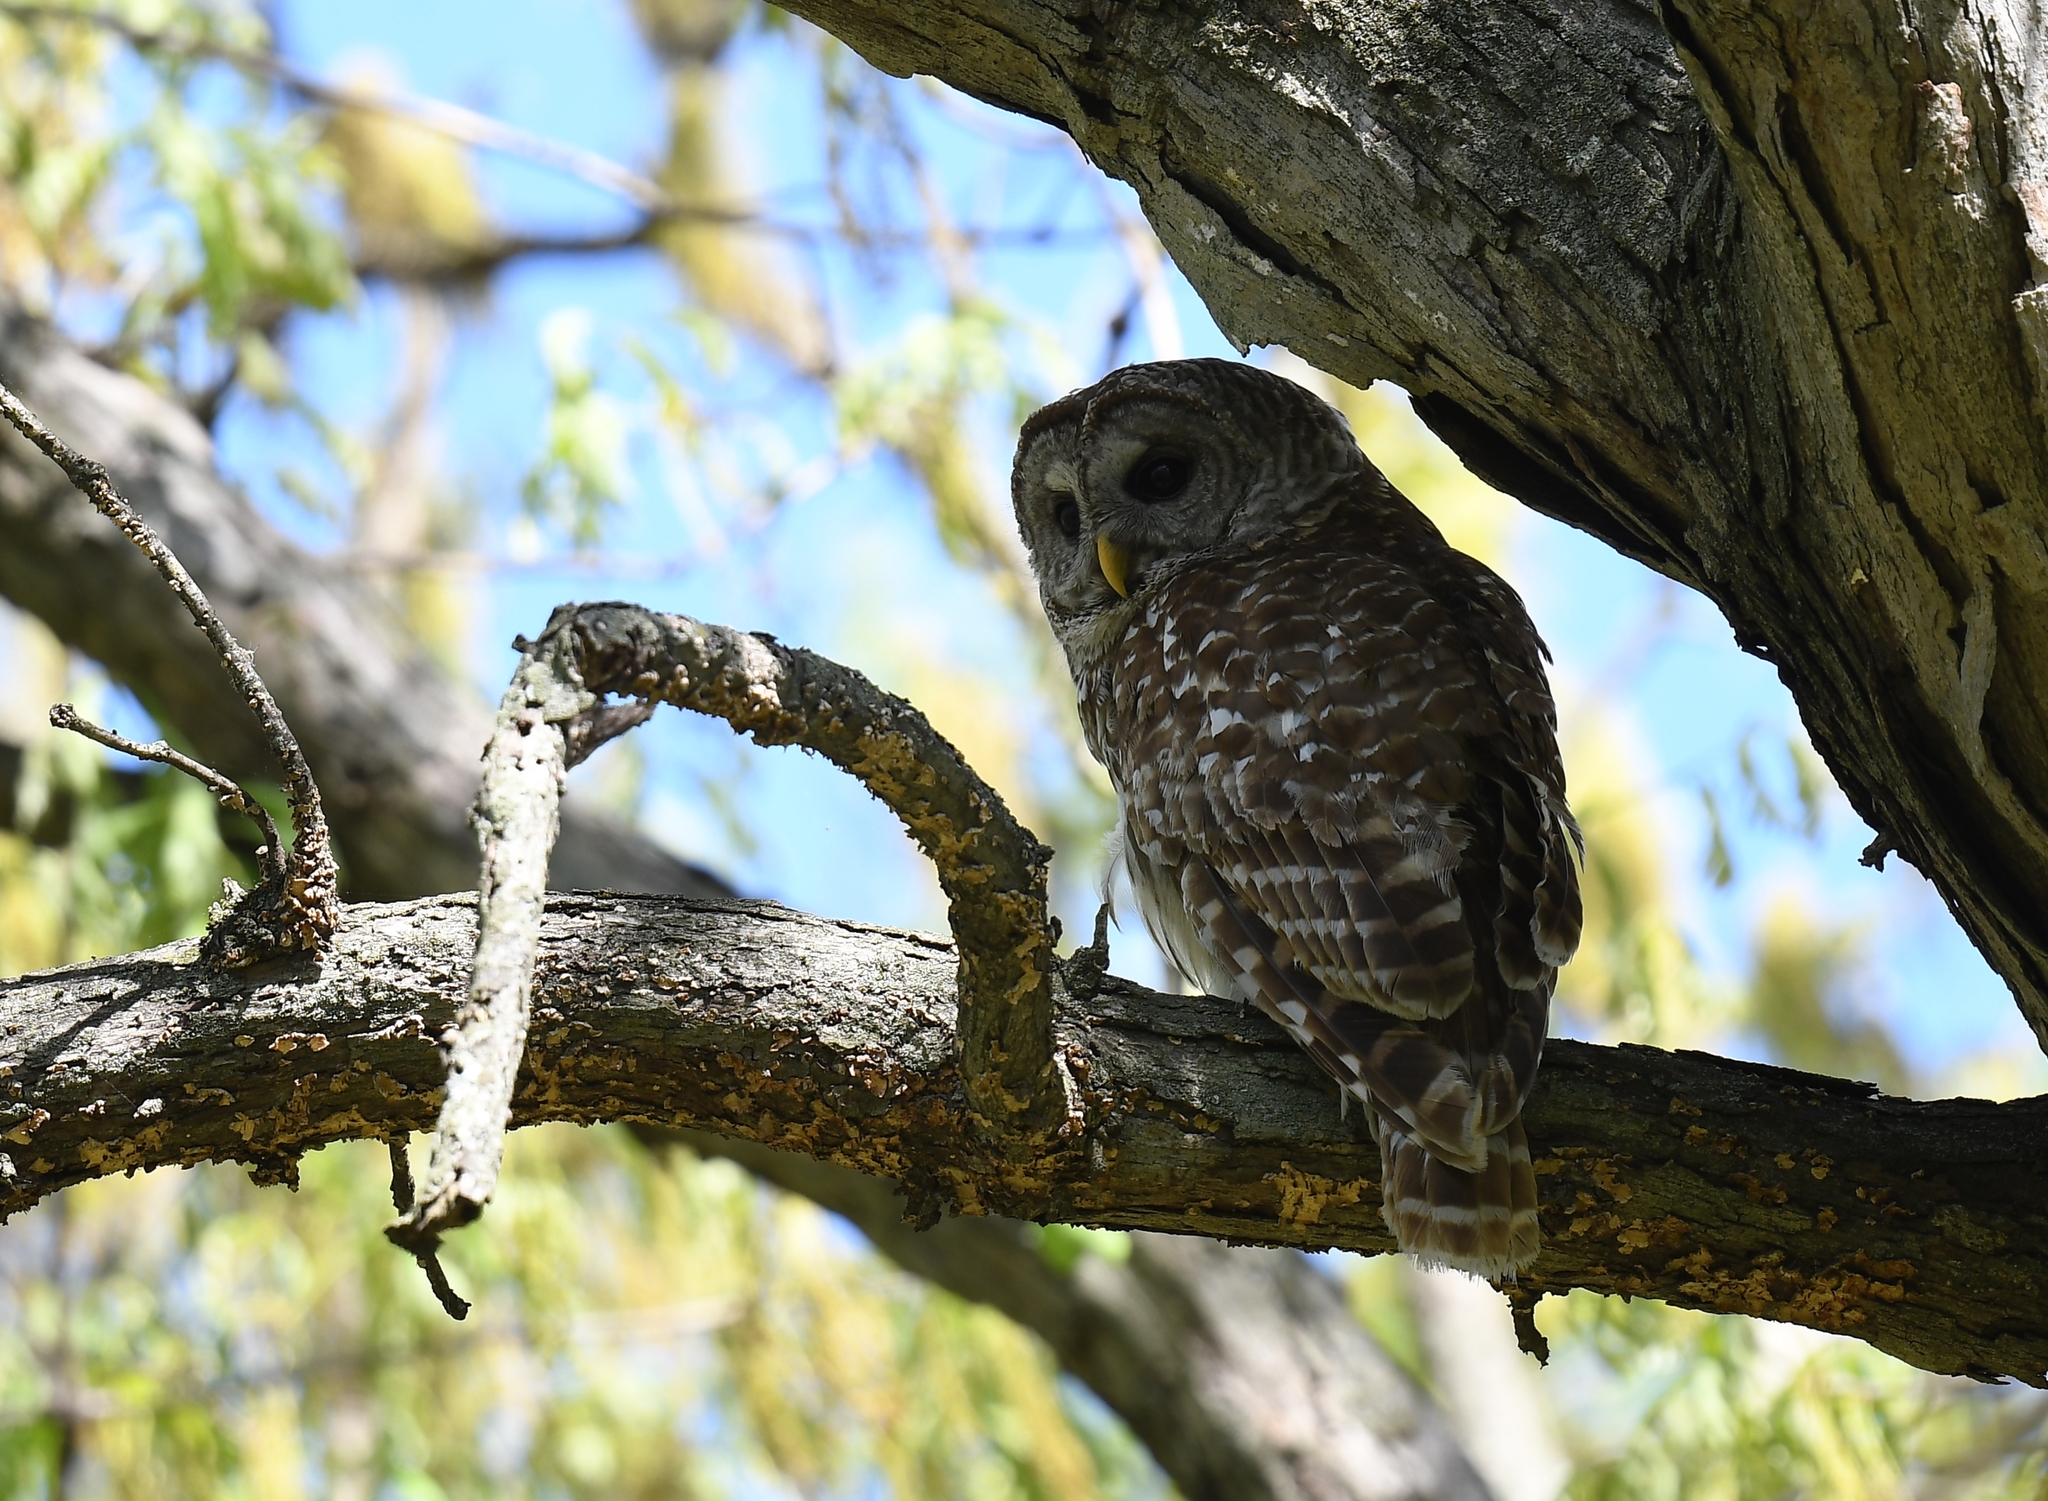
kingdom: Animalia
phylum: Chordata
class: Aves
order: Strigiformes
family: Strigidae
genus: Strix
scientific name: Strix varia
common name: Barred owl
